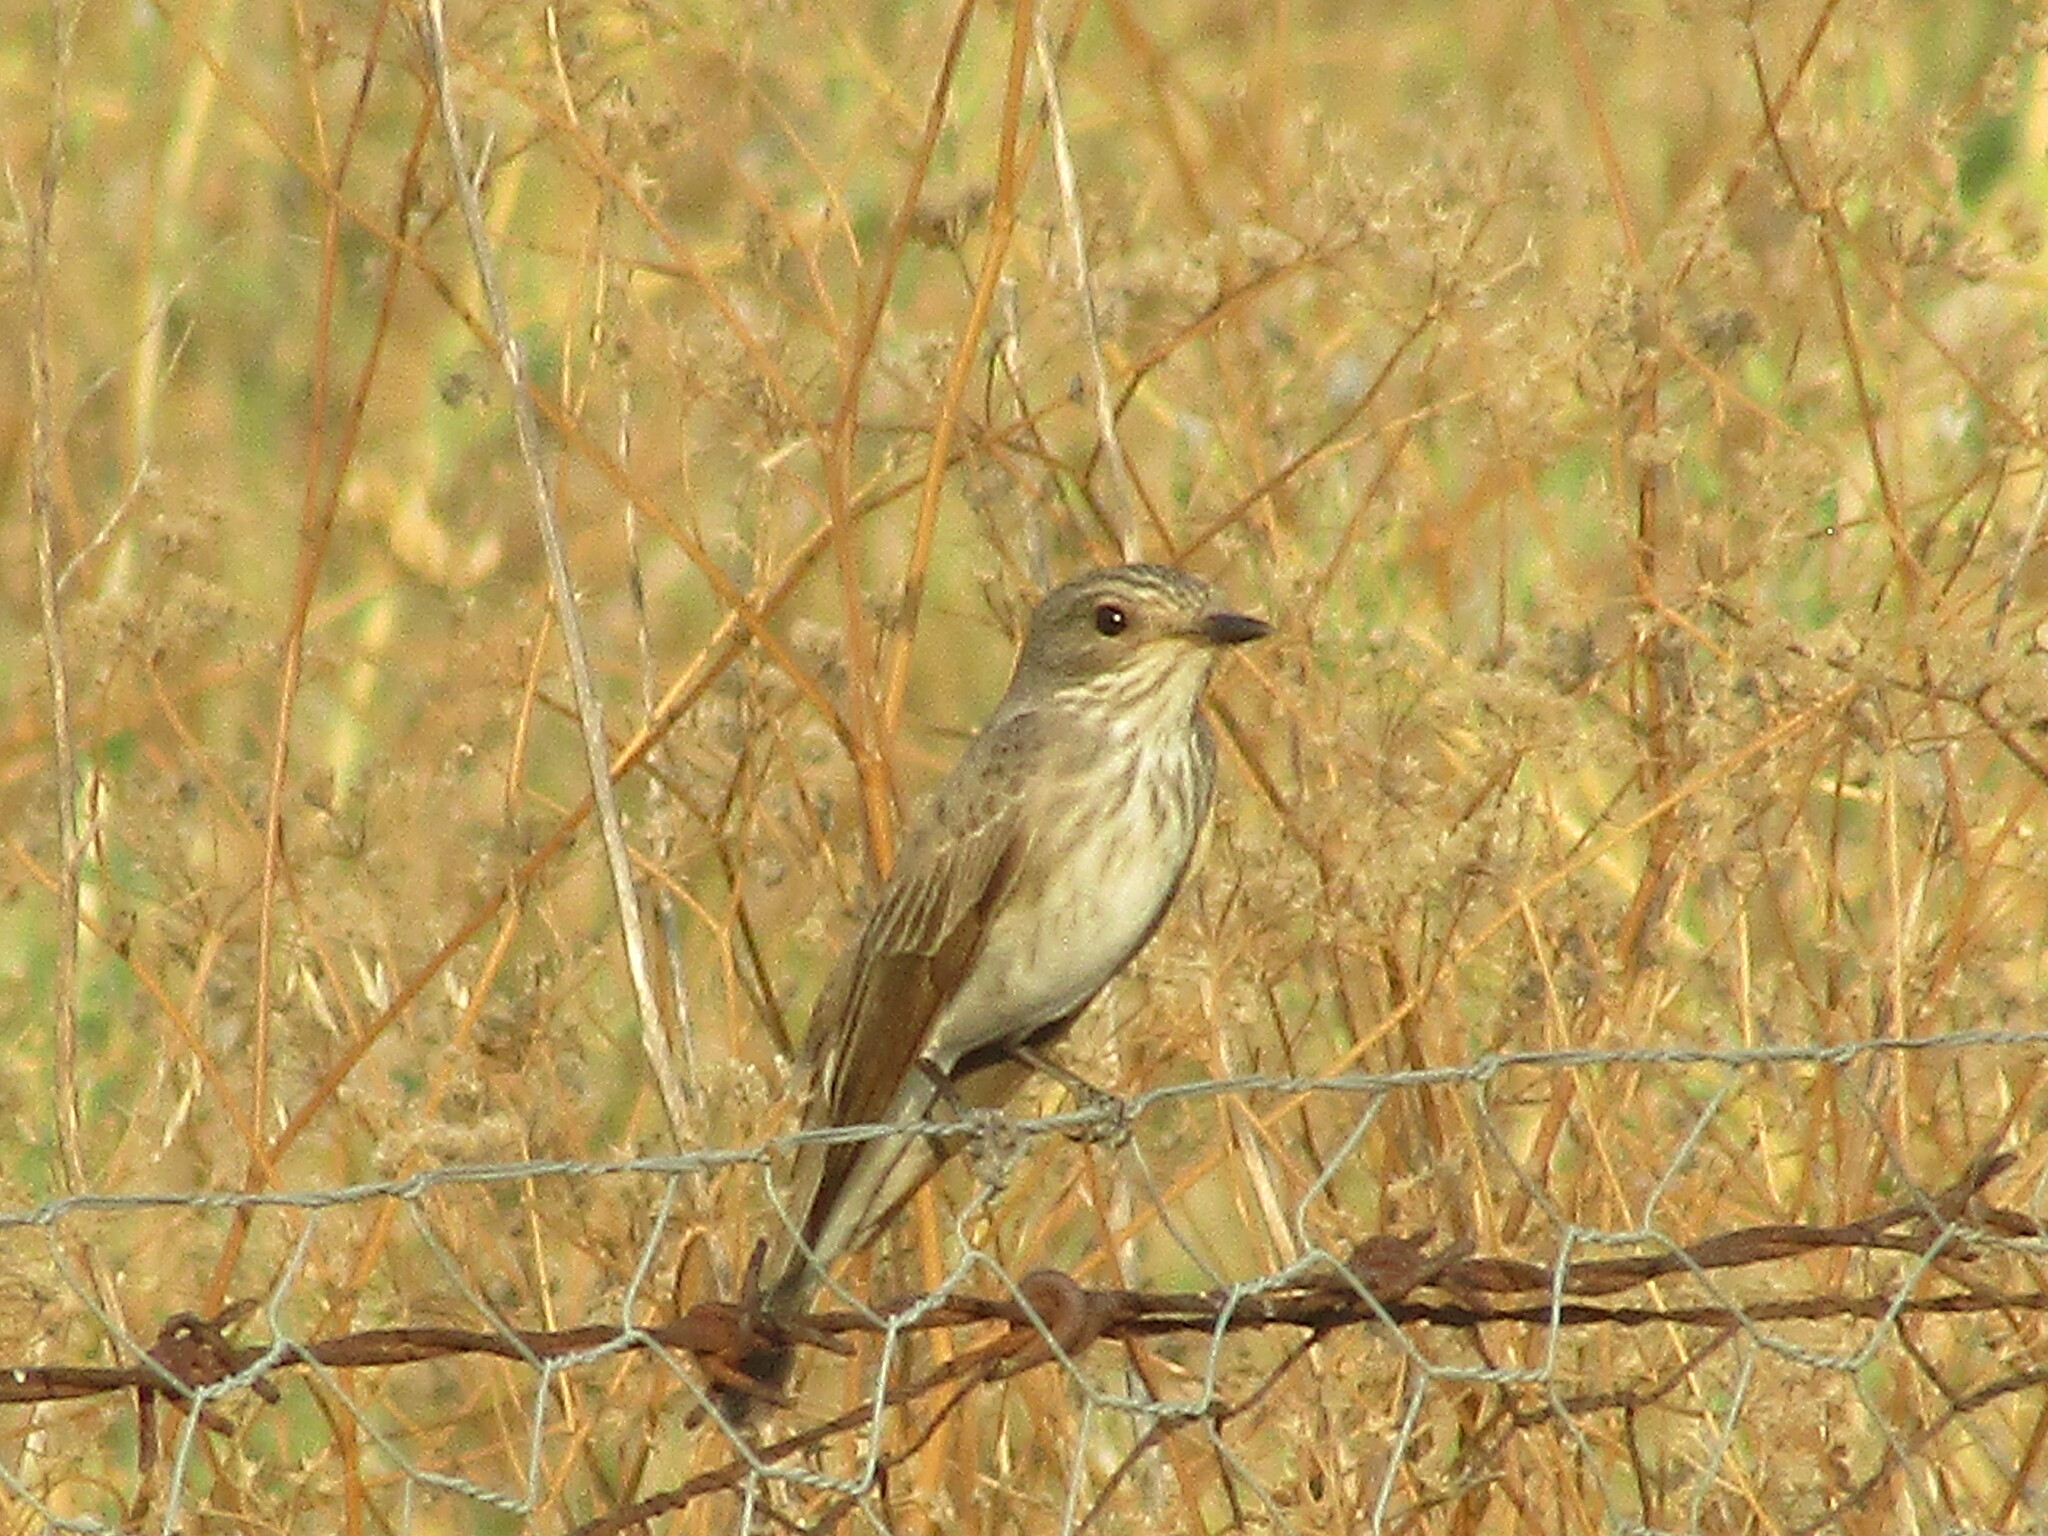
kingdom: Animalia
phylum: Chordata
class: Aves
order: Passeriformes
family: Muscicapidae
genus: Muscicapa
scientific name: Muscicapa striata
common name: Spotted flycatcher
